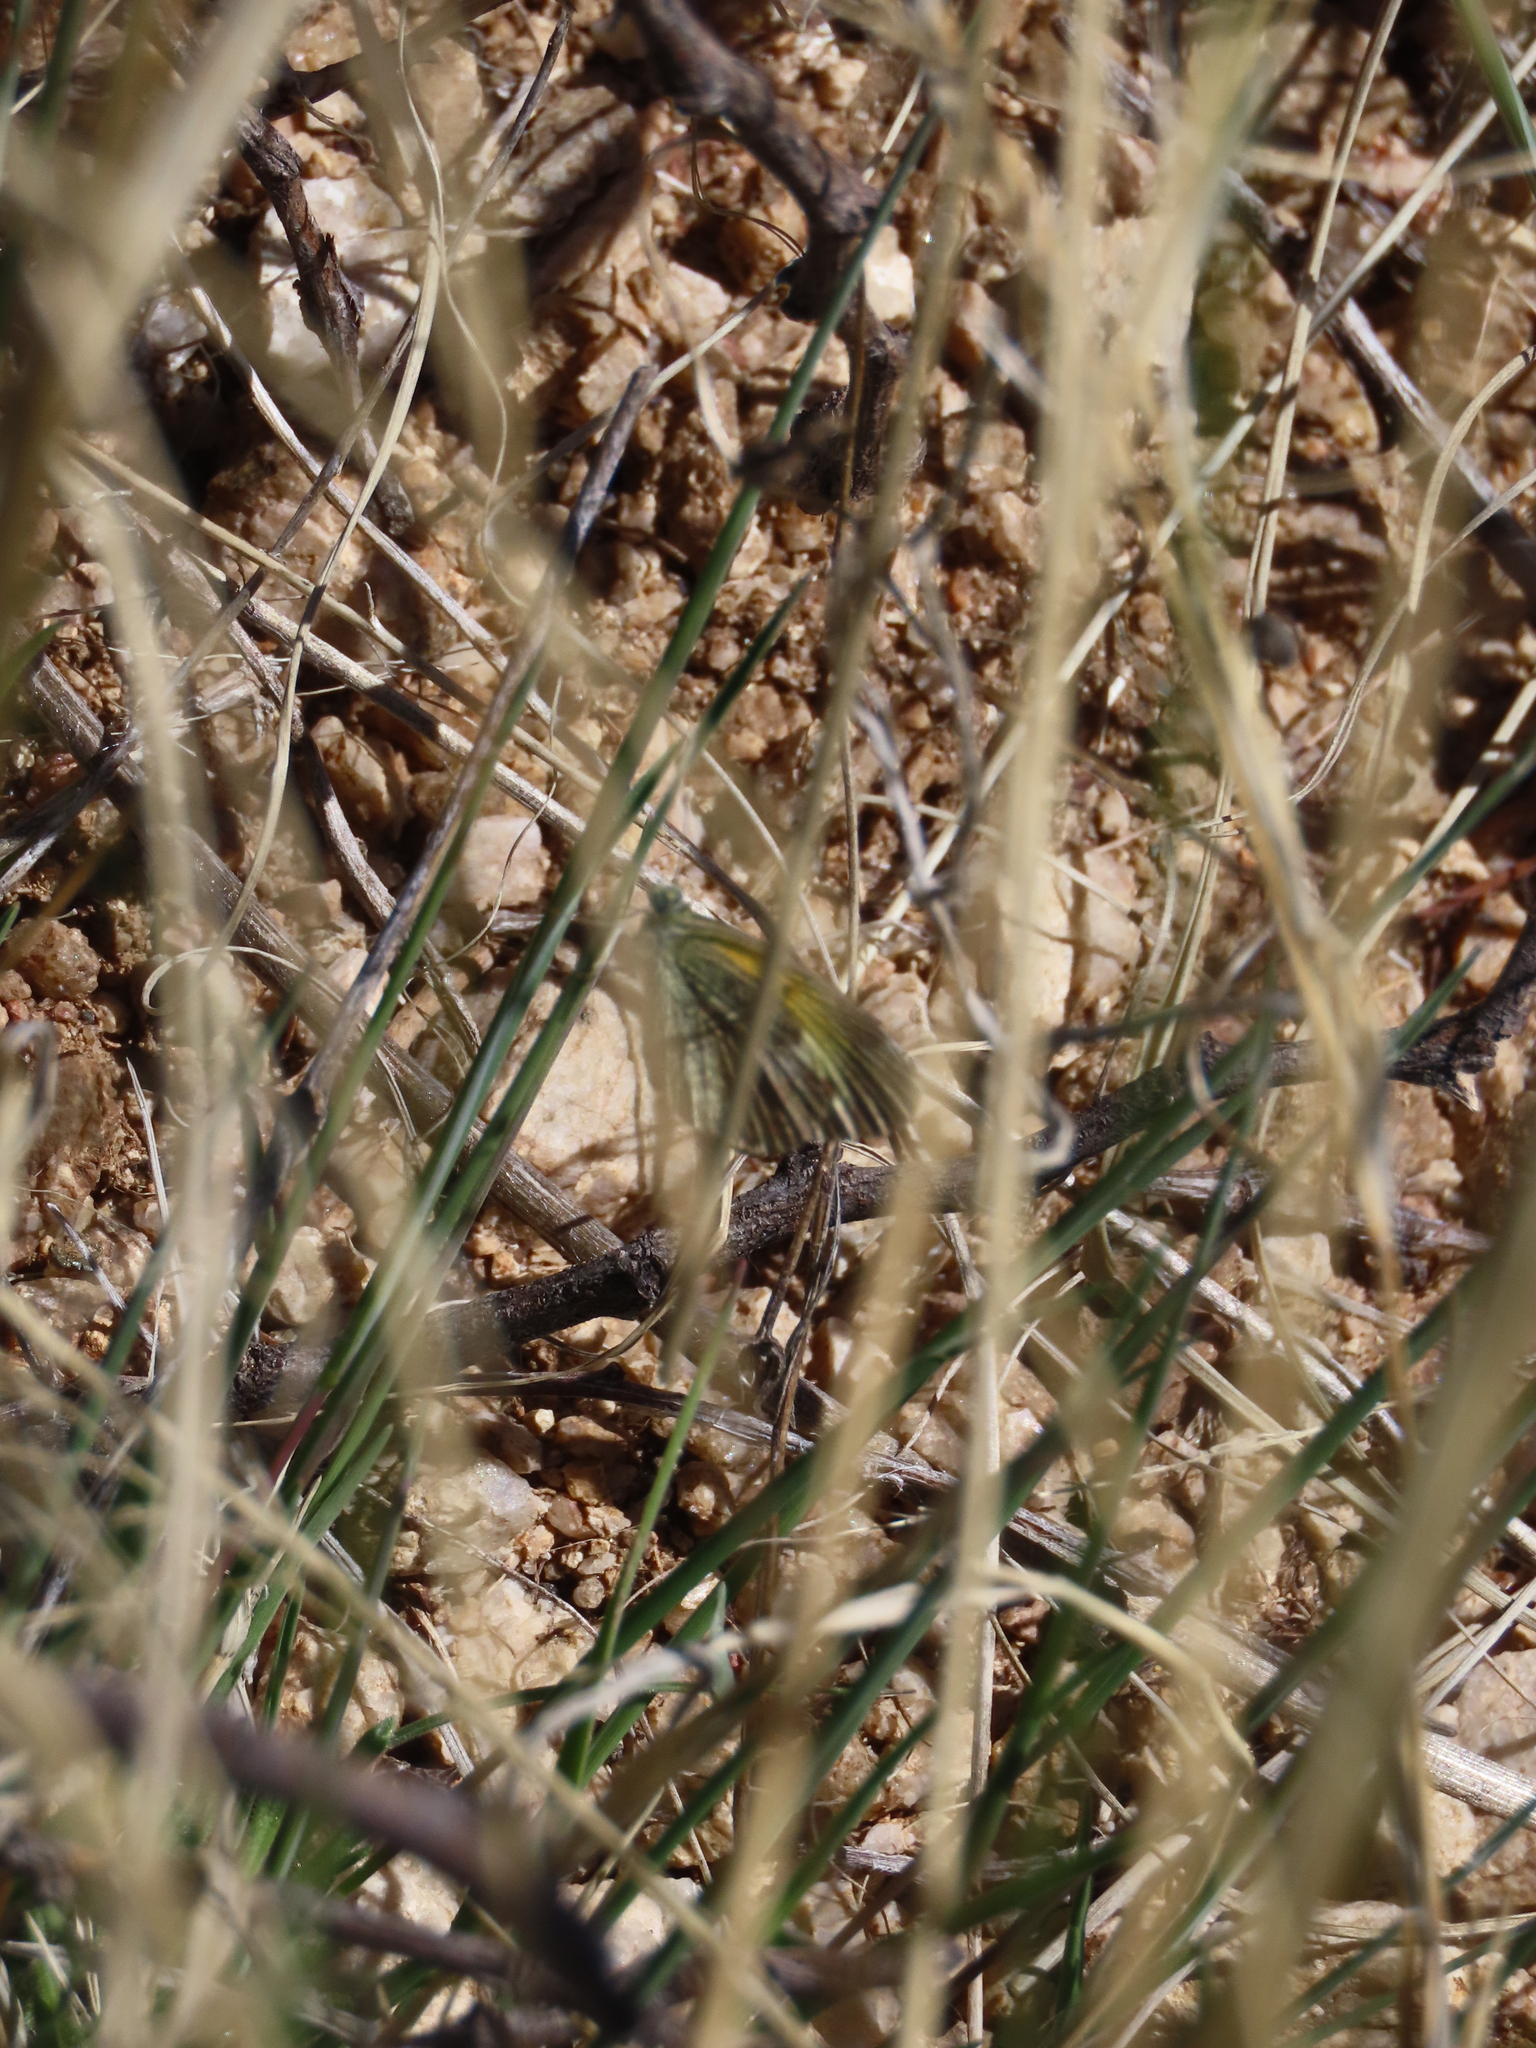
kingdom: Animalia
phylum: Arthropoda
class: Insecta
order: Lepidoptera
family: Pieridae
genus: Nathalis
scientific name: Nathalis iole
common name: Dainty sulphur
